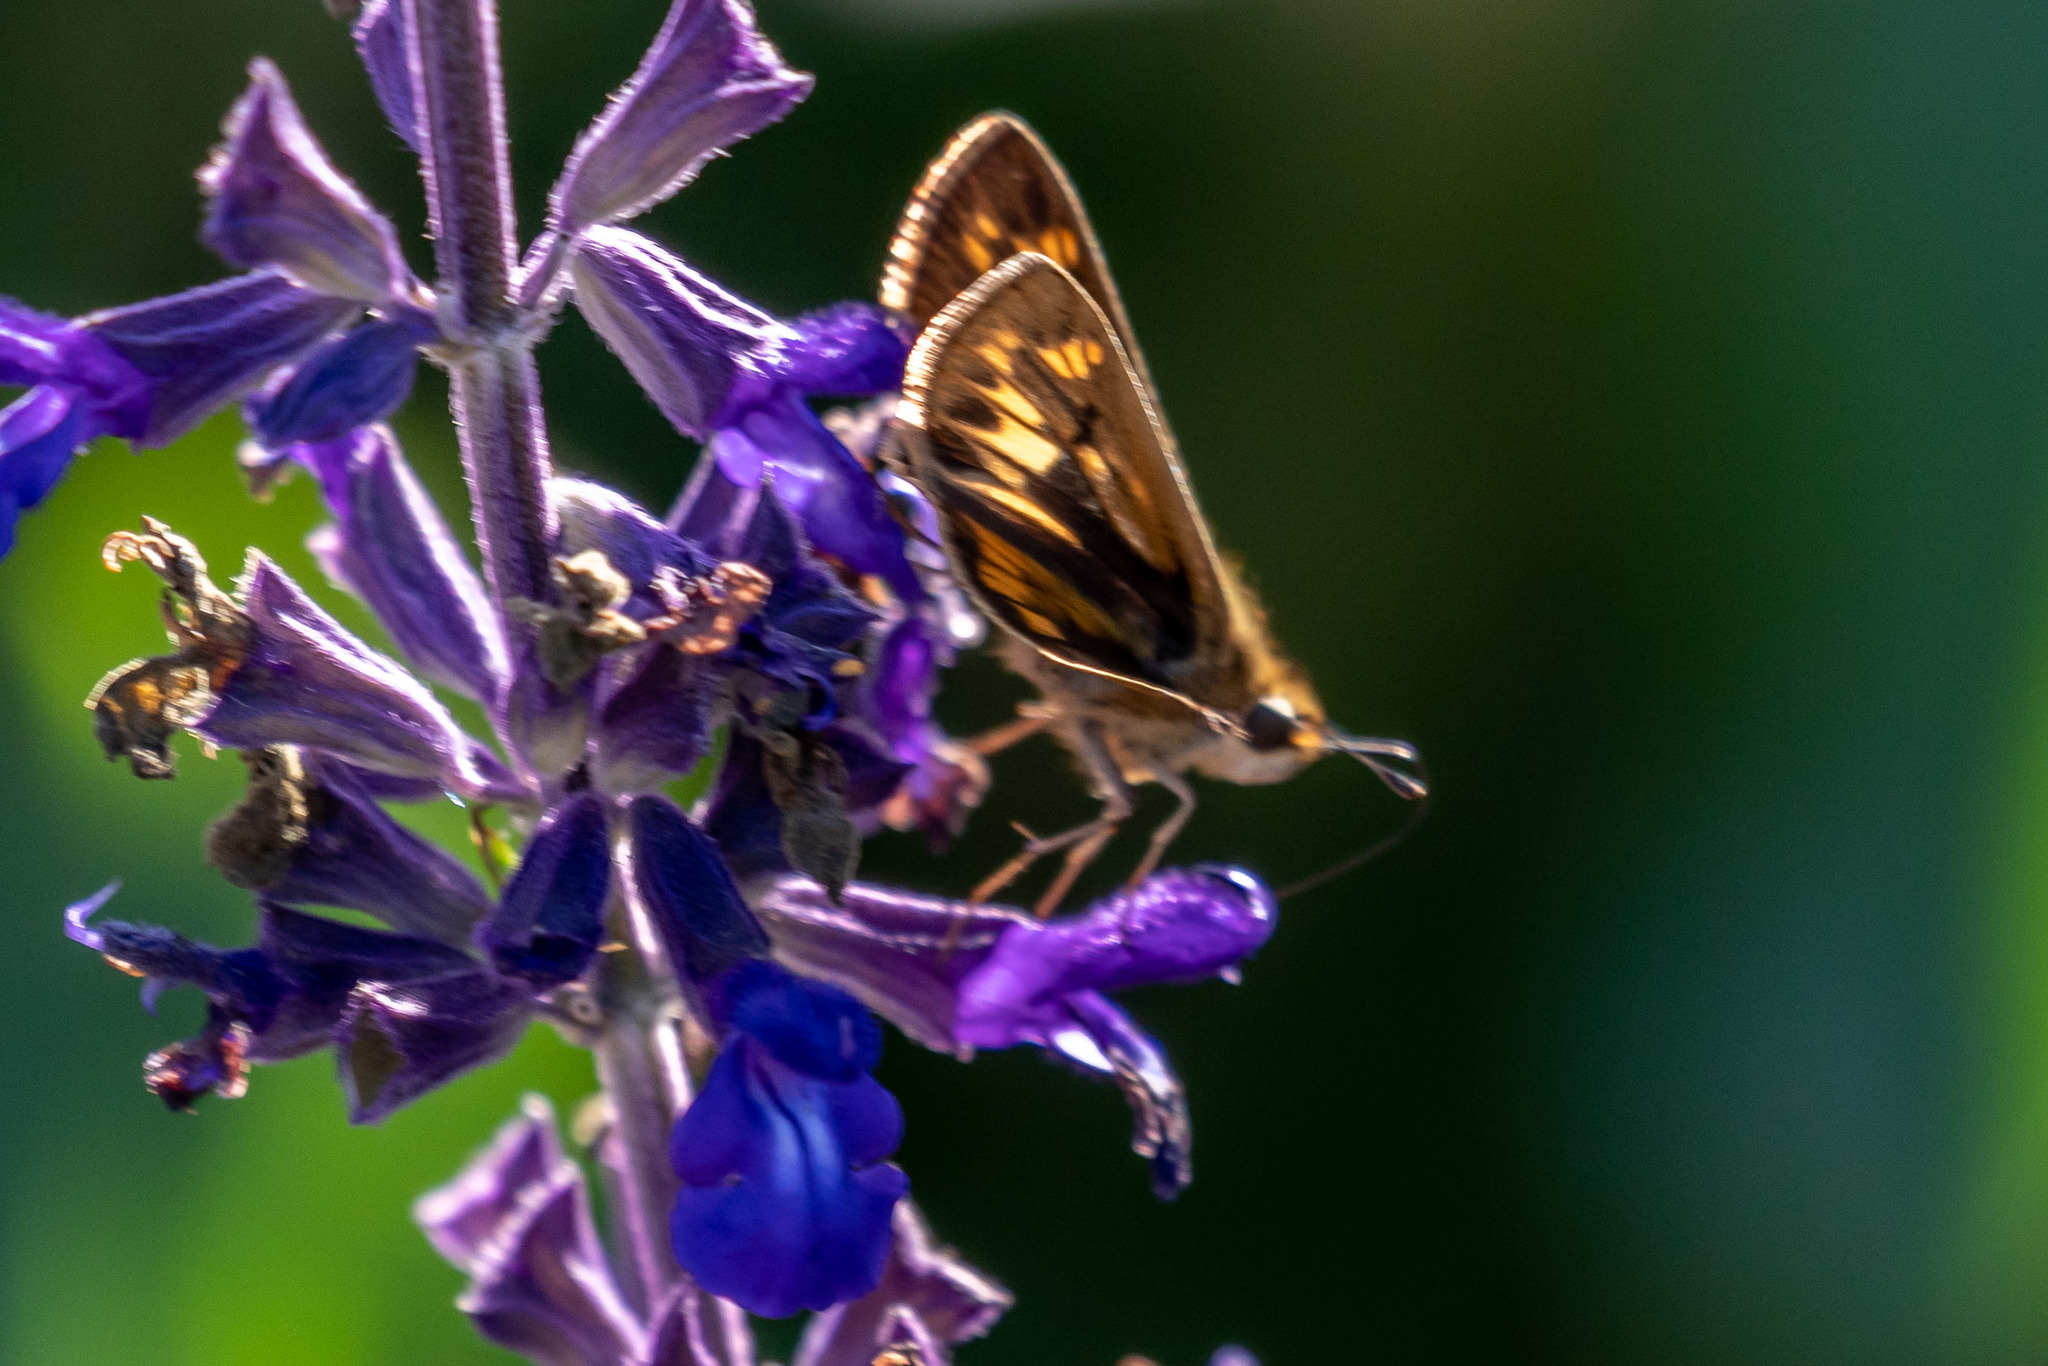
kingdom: Animalia
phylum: Arthropoda
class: Insecta
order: Lepidoptera
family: Hesperiidae
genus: Hylephila
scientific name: Hylephila phyleus
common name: Fiery skipper
